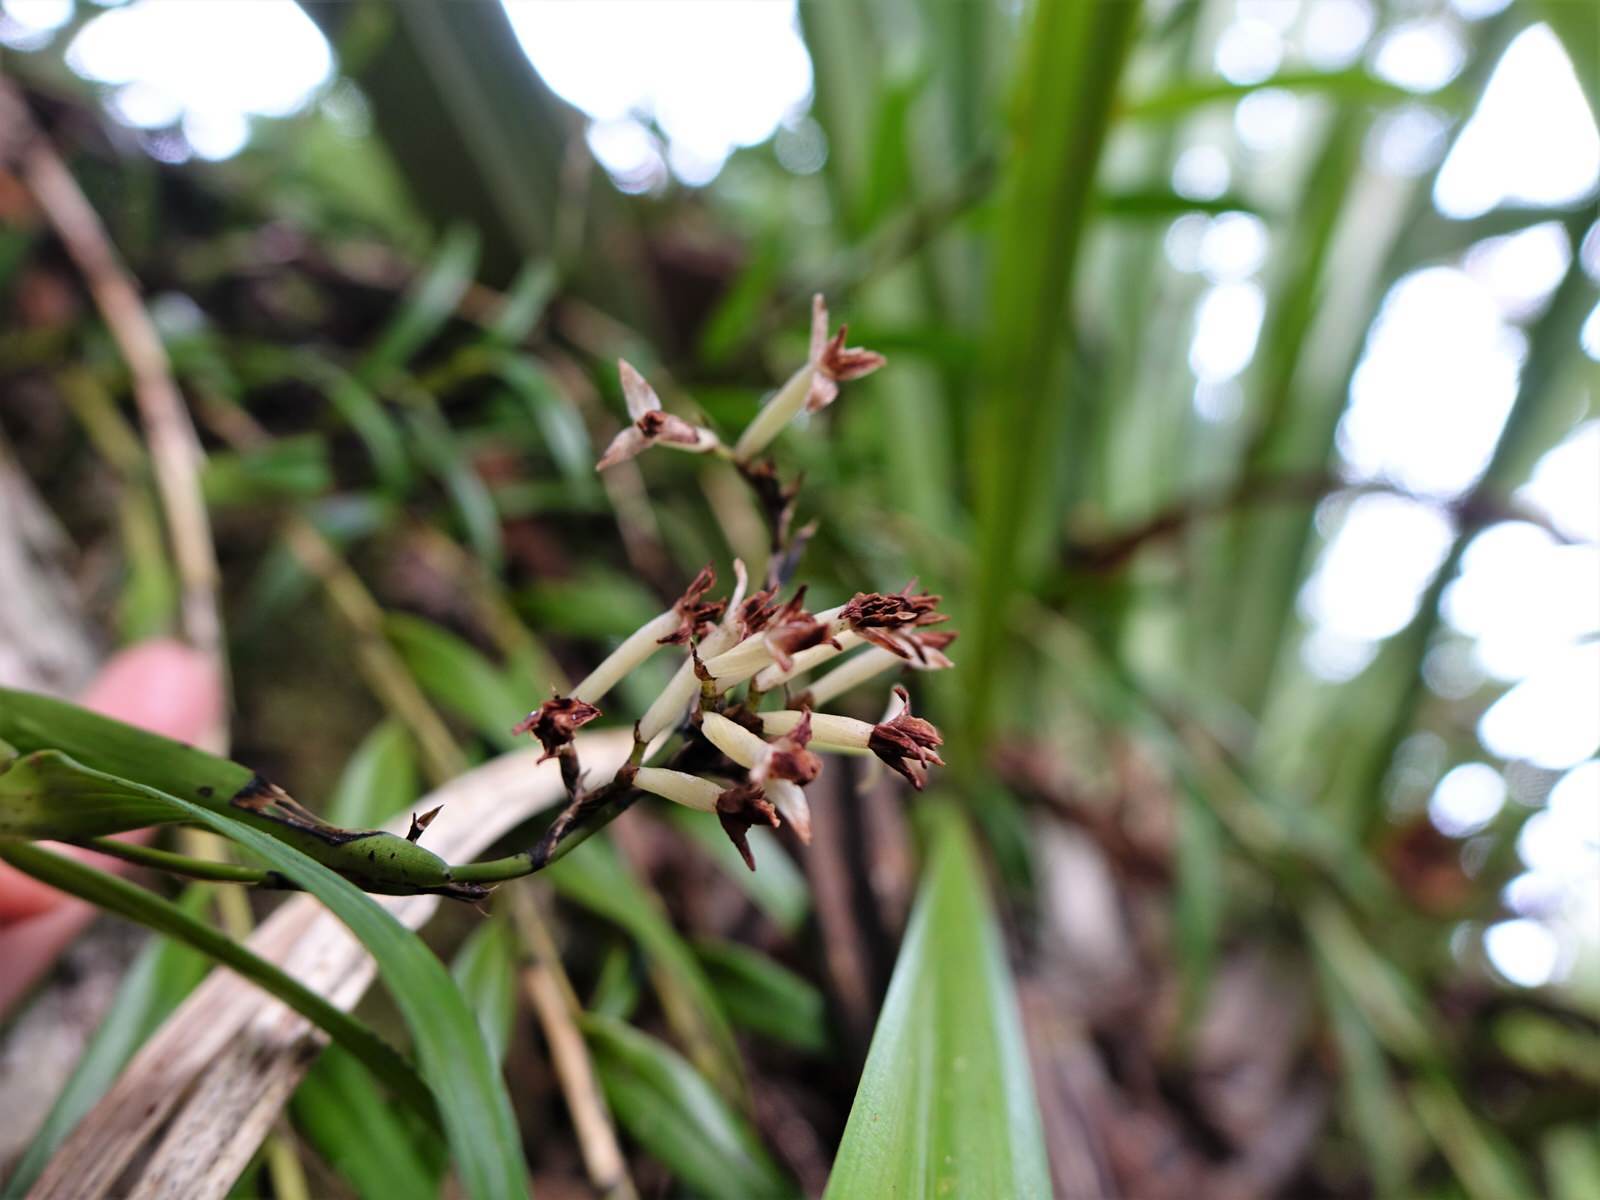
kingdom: Plantae
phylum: Tracheophyta
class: Liliopsida
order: Asparagales
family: Orchidaceae
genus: Earina
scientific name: Earina autumnalis
